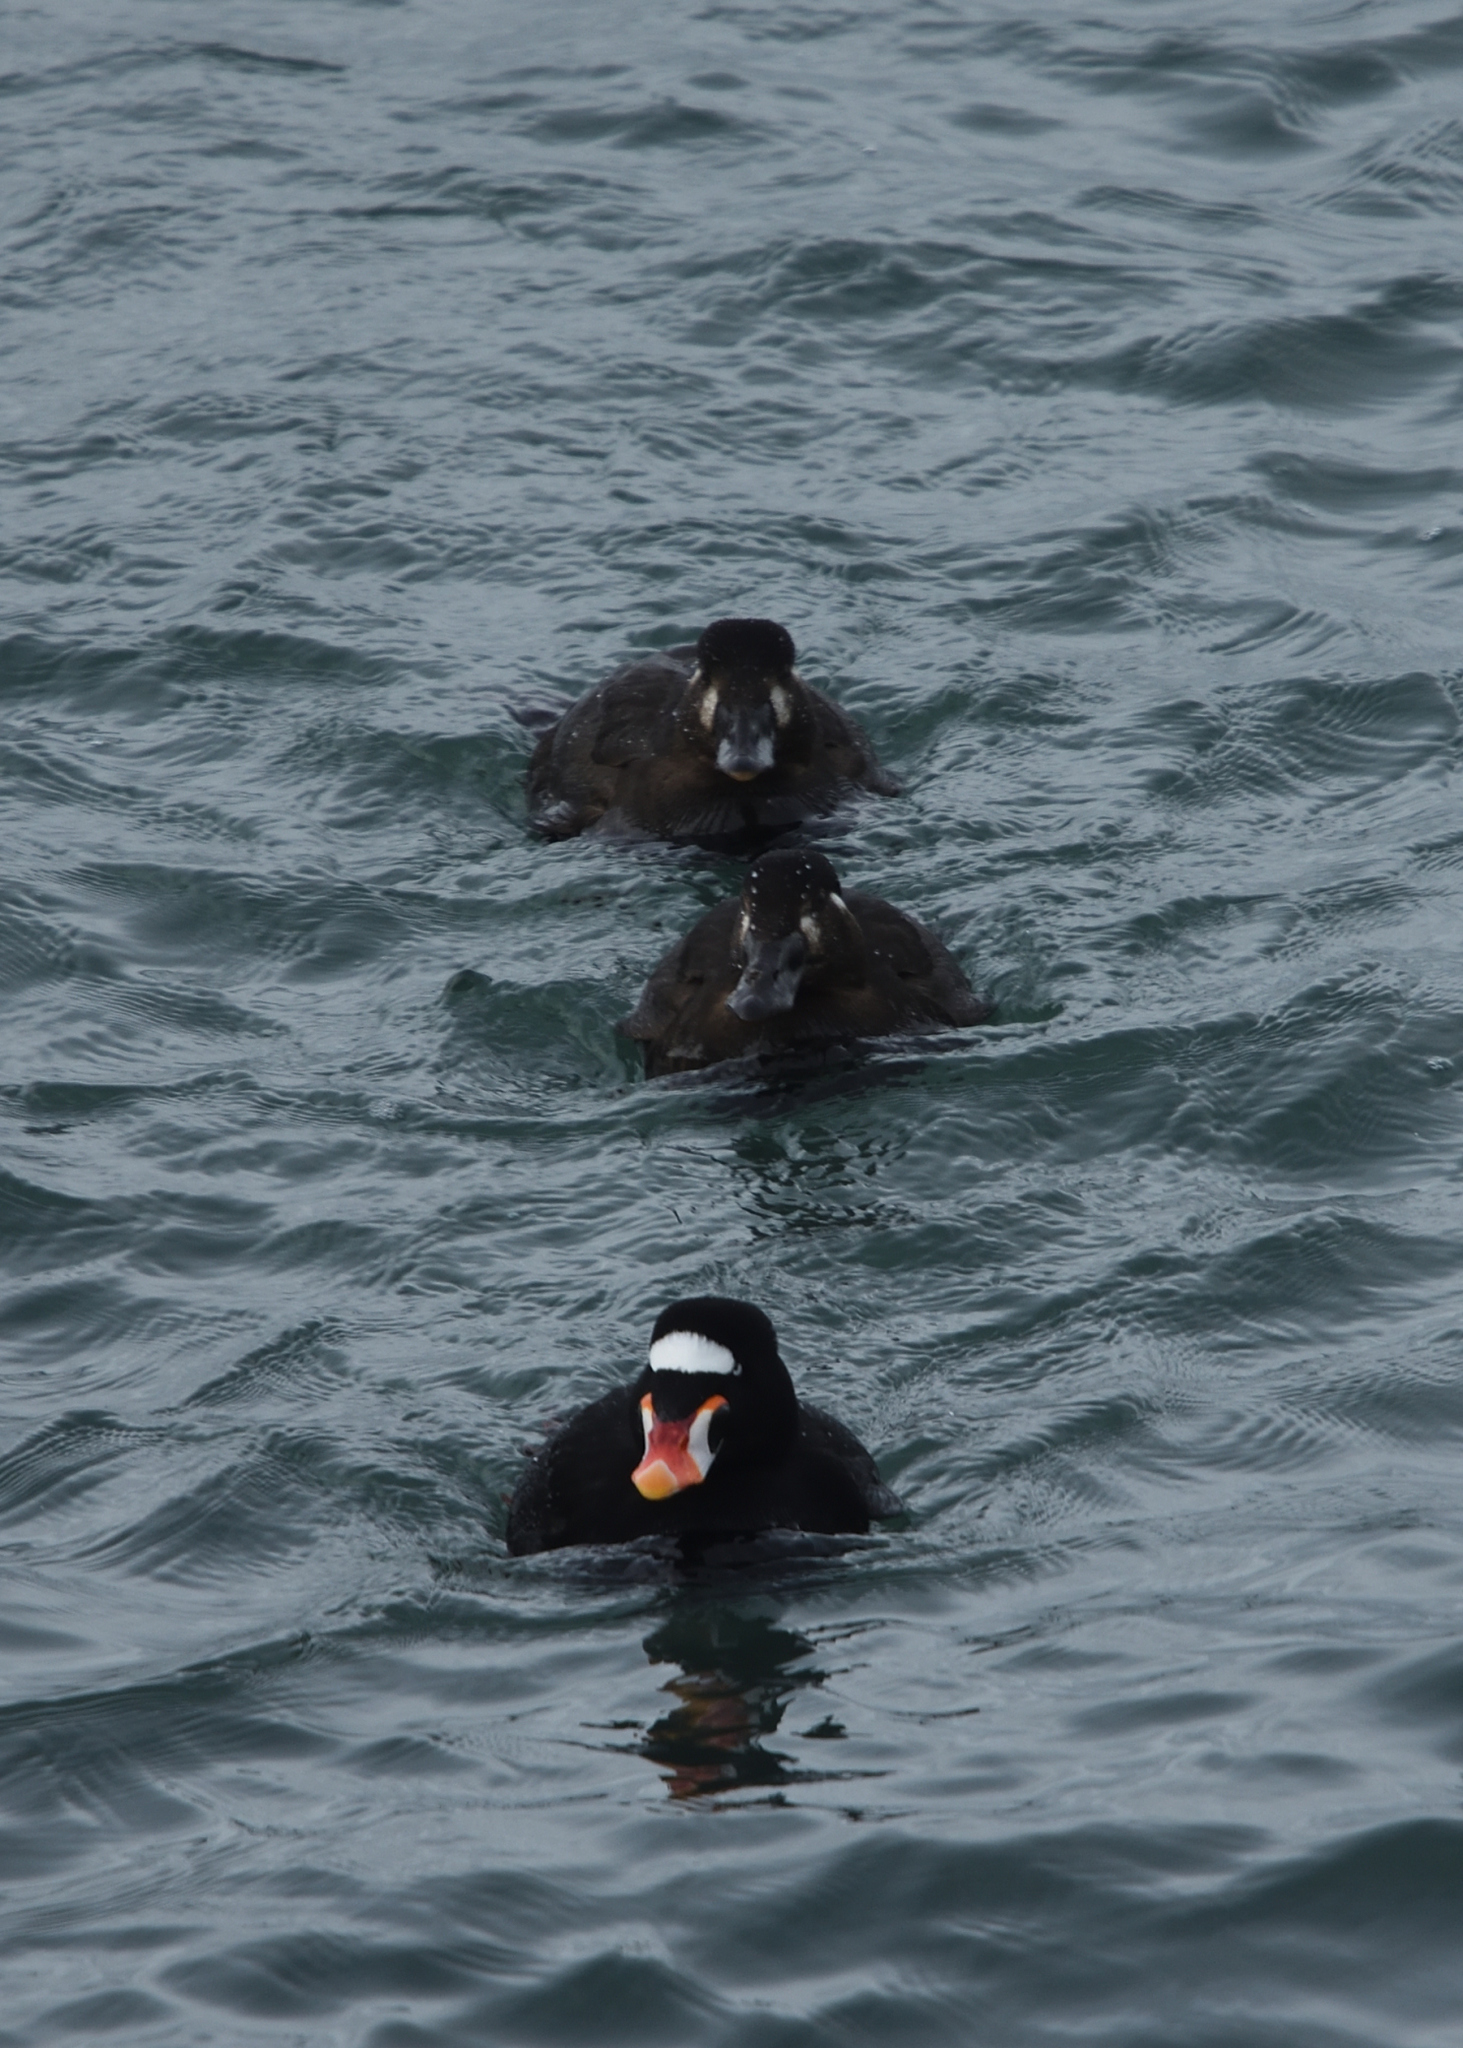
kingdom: Animalia
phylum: Chordata
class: Aves
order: Anseriformes
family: Anatidae
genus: Melanitta
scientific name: Melanitta perspicillata
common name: Surf scoter
